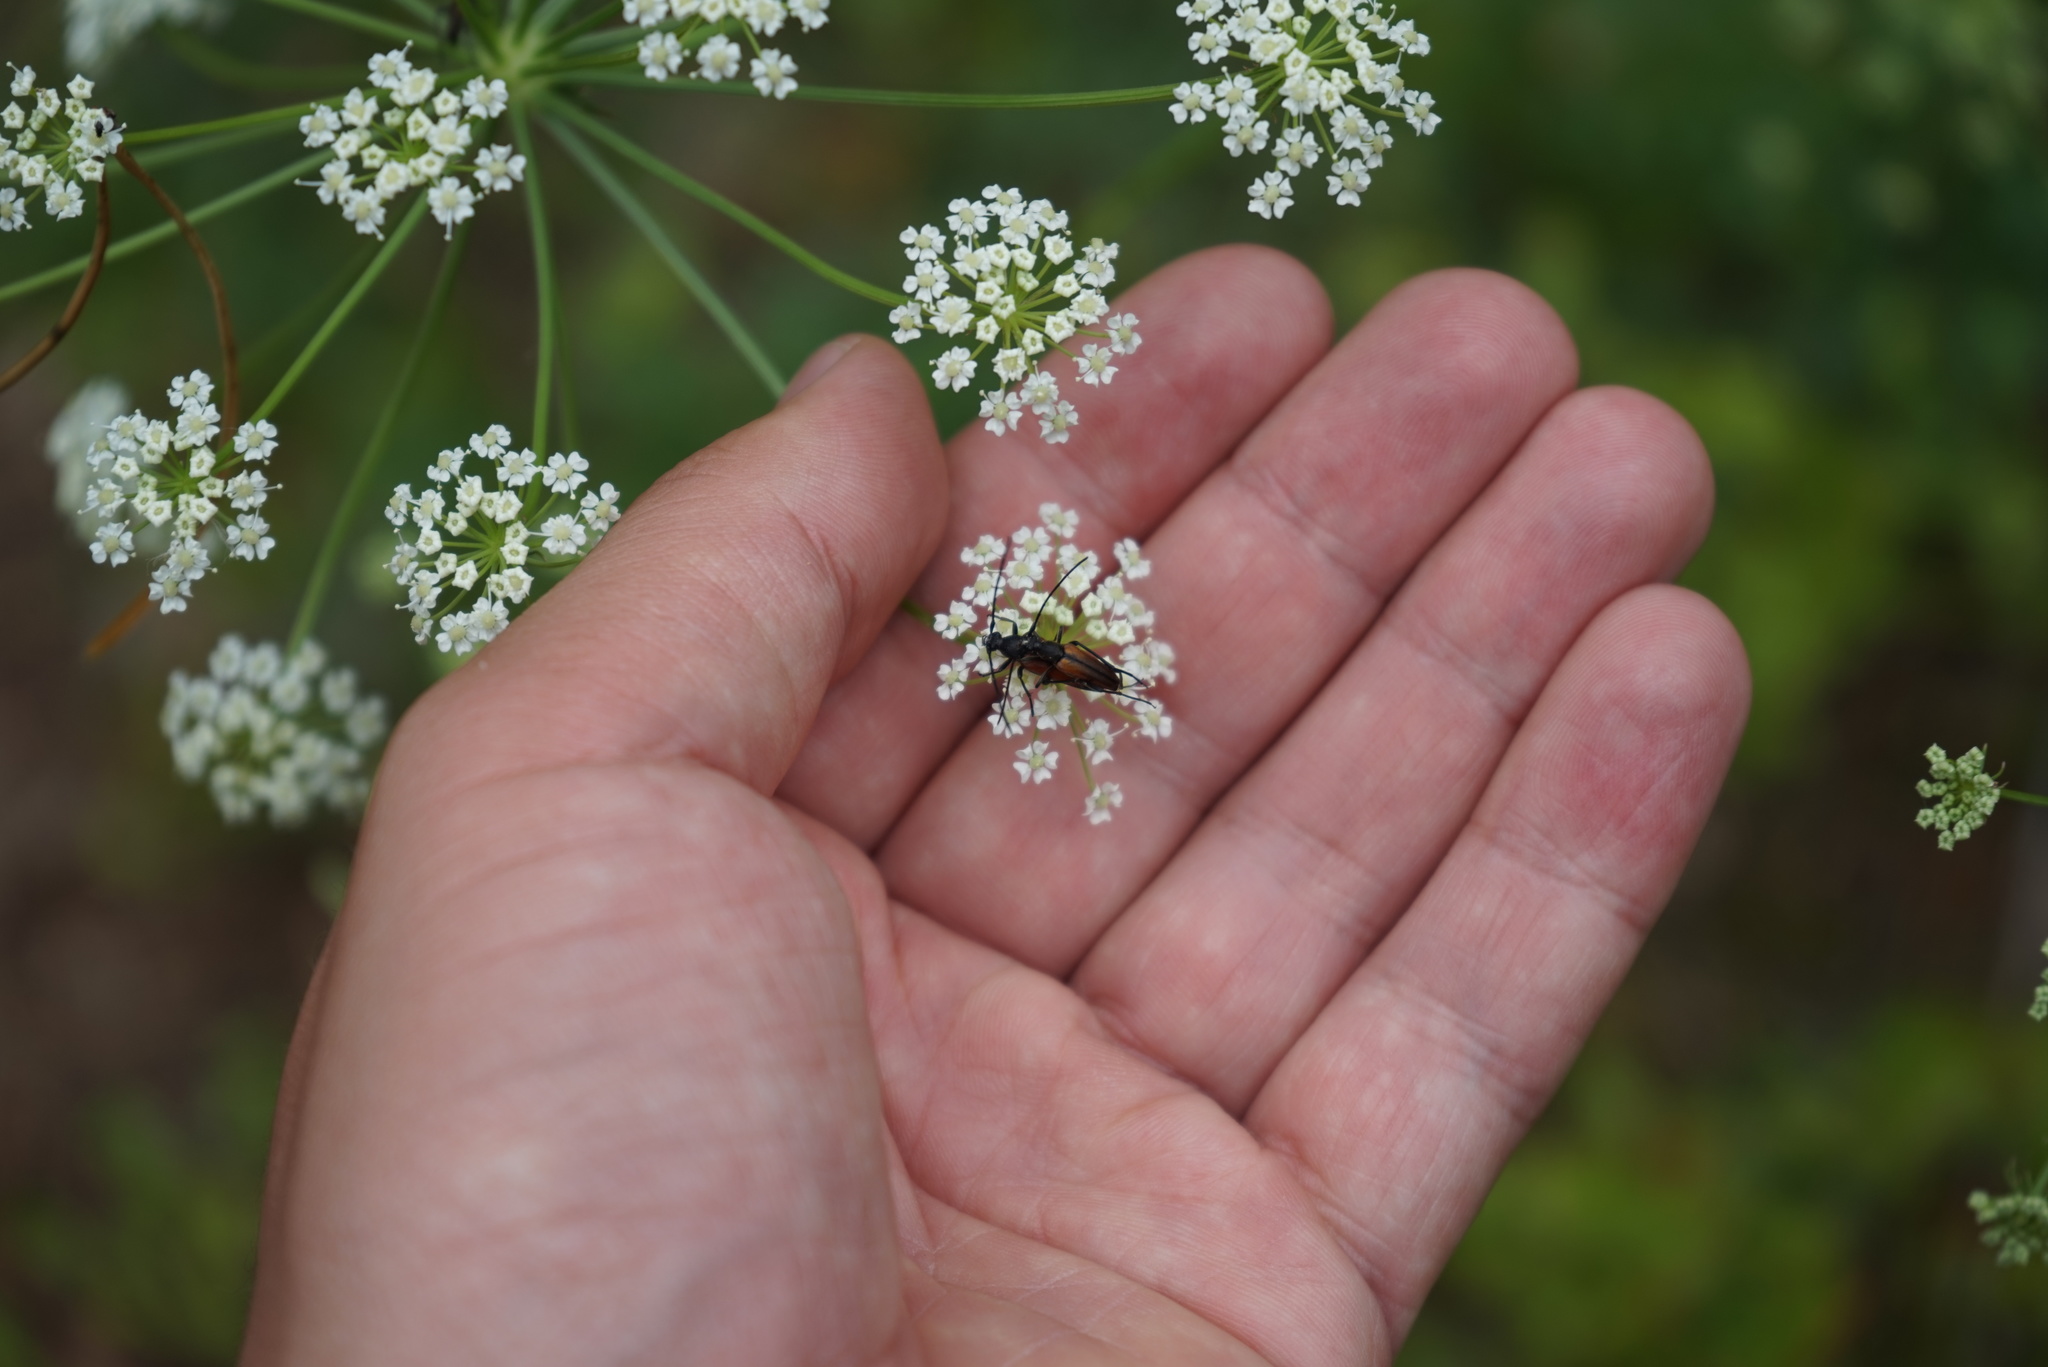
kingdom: Animalia
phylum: Arthropoda
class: Insecta
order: Coleoptera
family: Cerambycidae
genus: Stenurella
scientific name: Stenurella melanura
